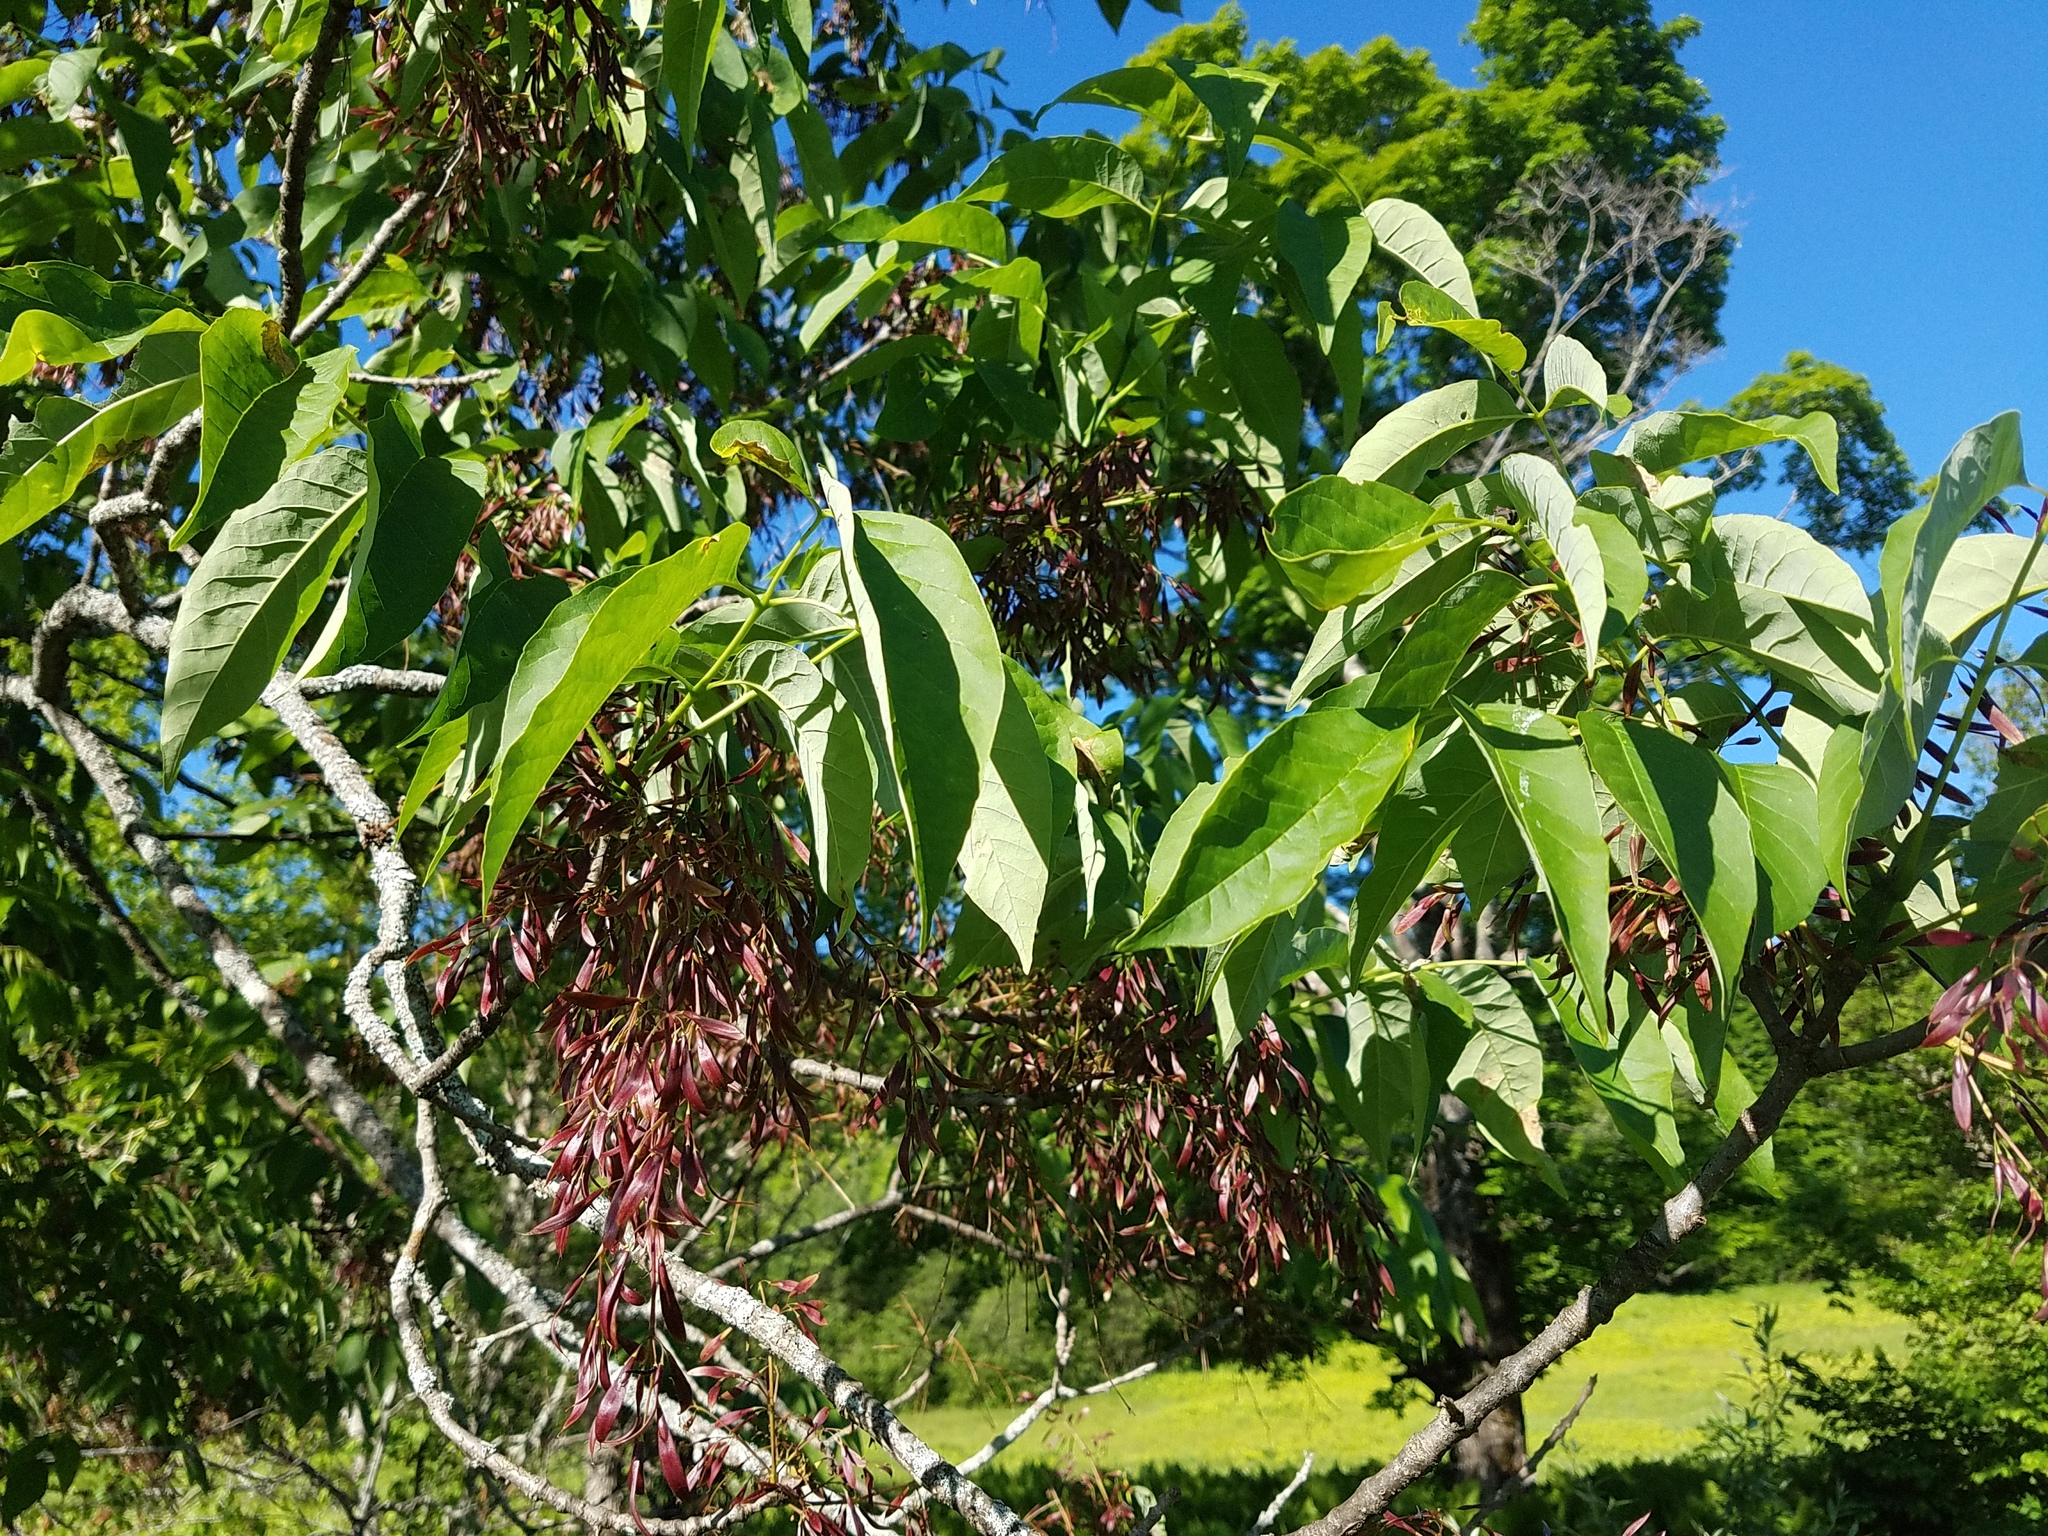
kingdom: Plantae
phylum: Tracheophyta
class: Magnoliopsida
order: Lamiales
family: Oleaceae
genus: Fraxinus
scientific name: Fraxinus americana
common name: White ash
